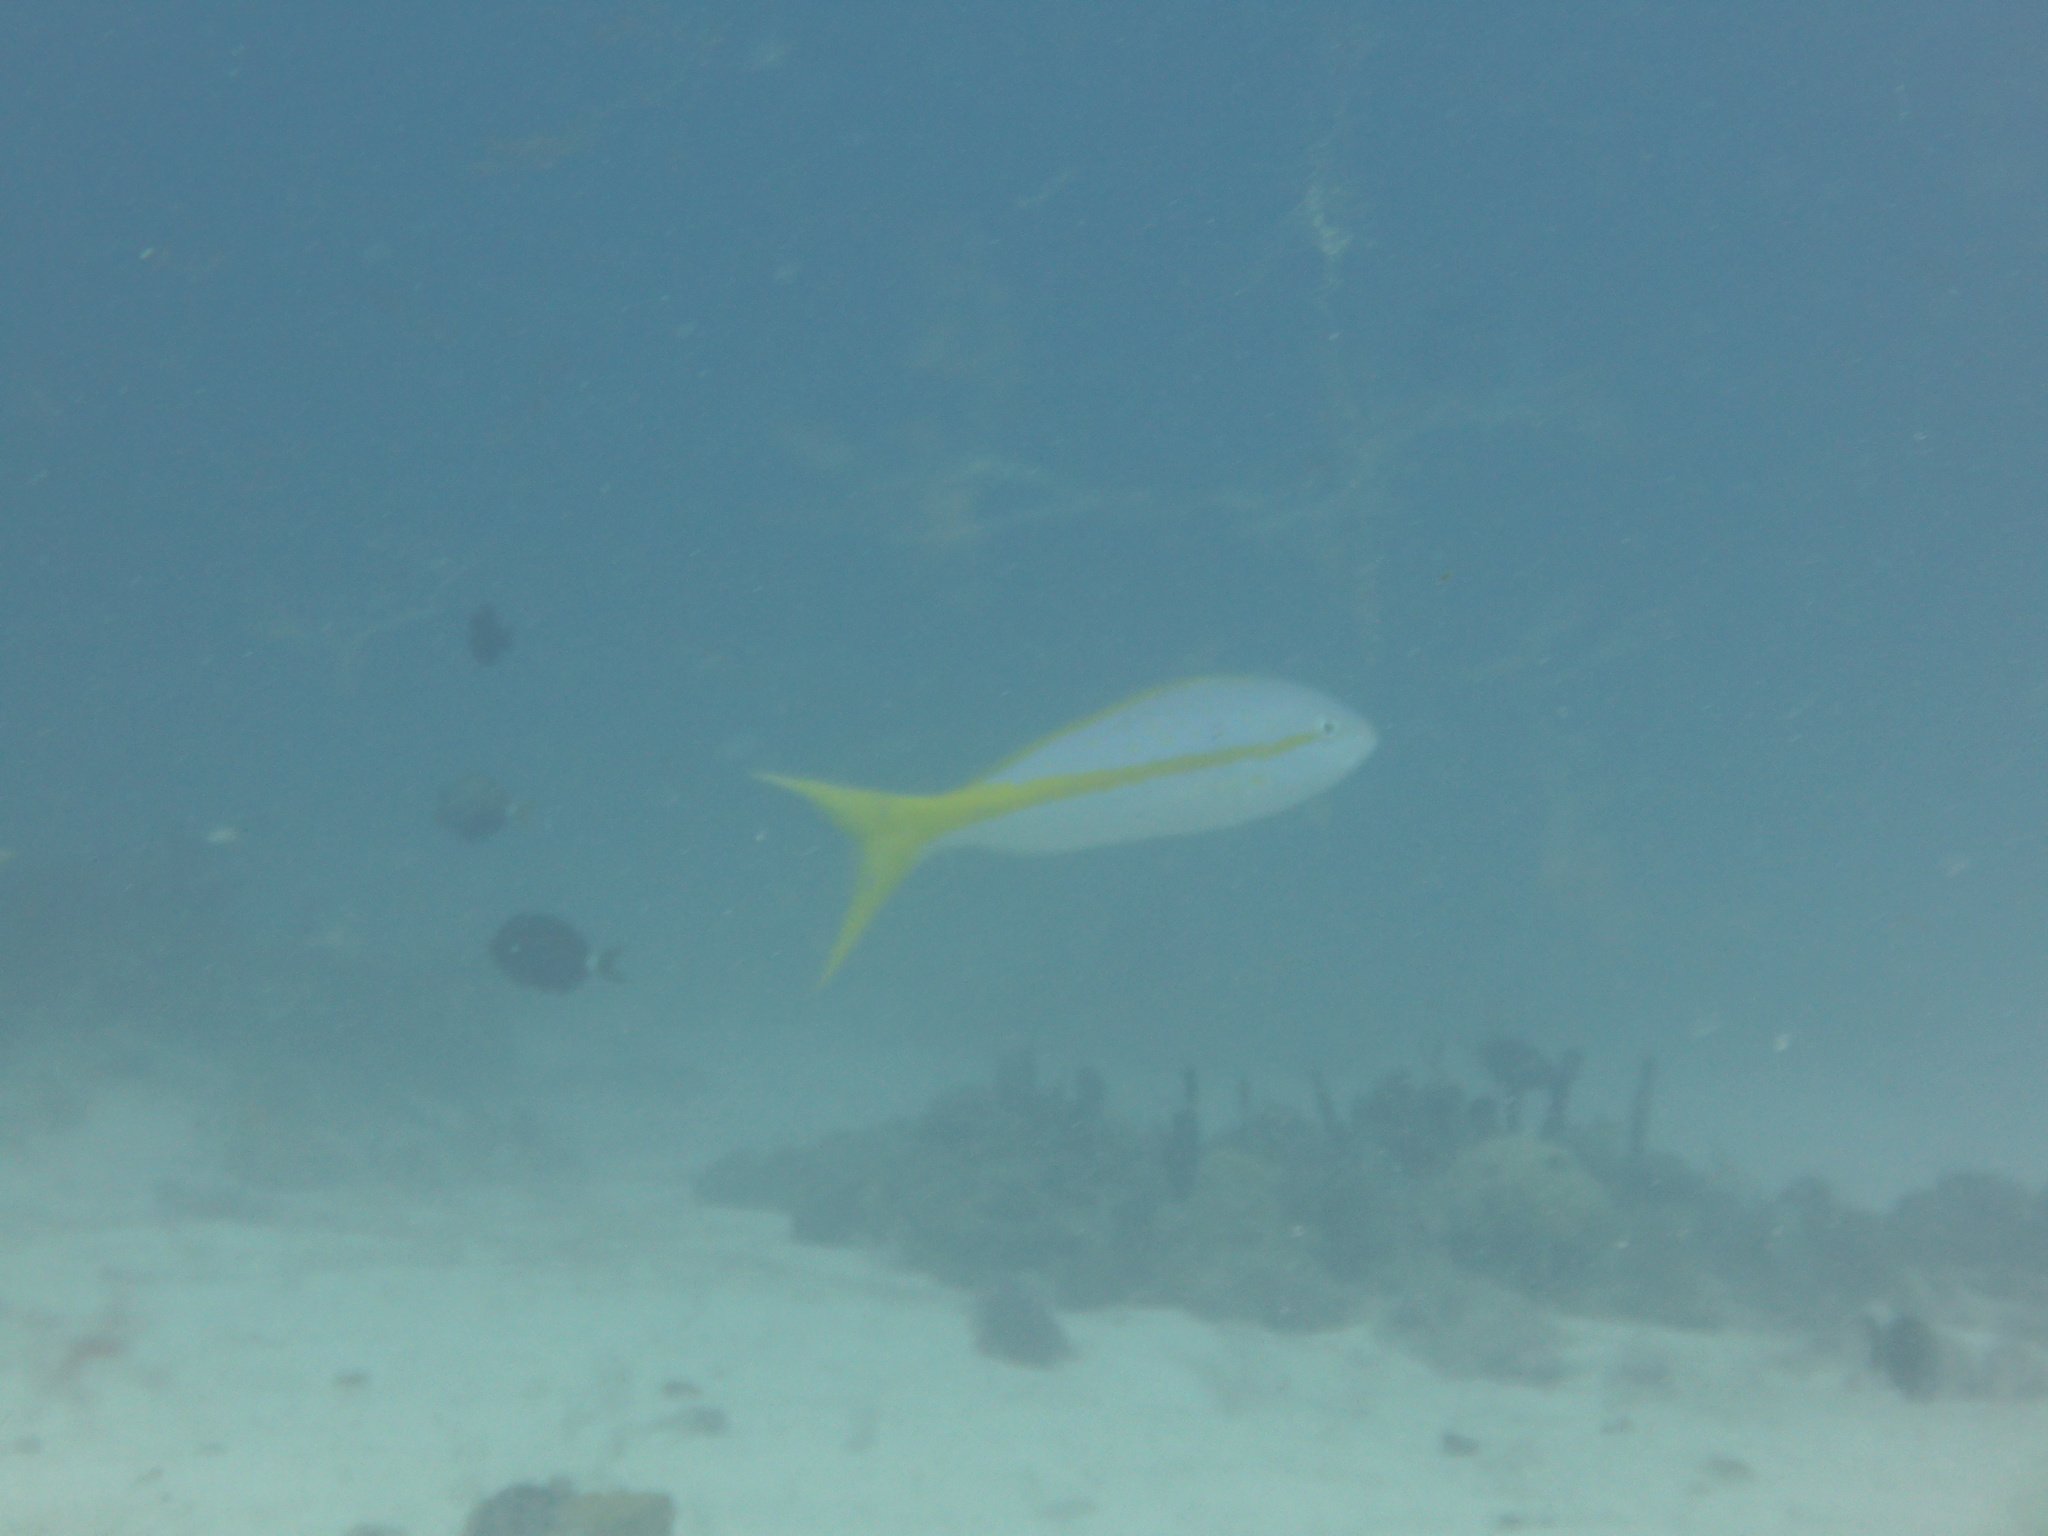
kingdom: Animalia
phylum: Chordata
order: Perciformes
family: Lutjanidae
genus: Ocyurus
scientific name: Ocyurus chrysurus
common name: Yellowtail snapper
